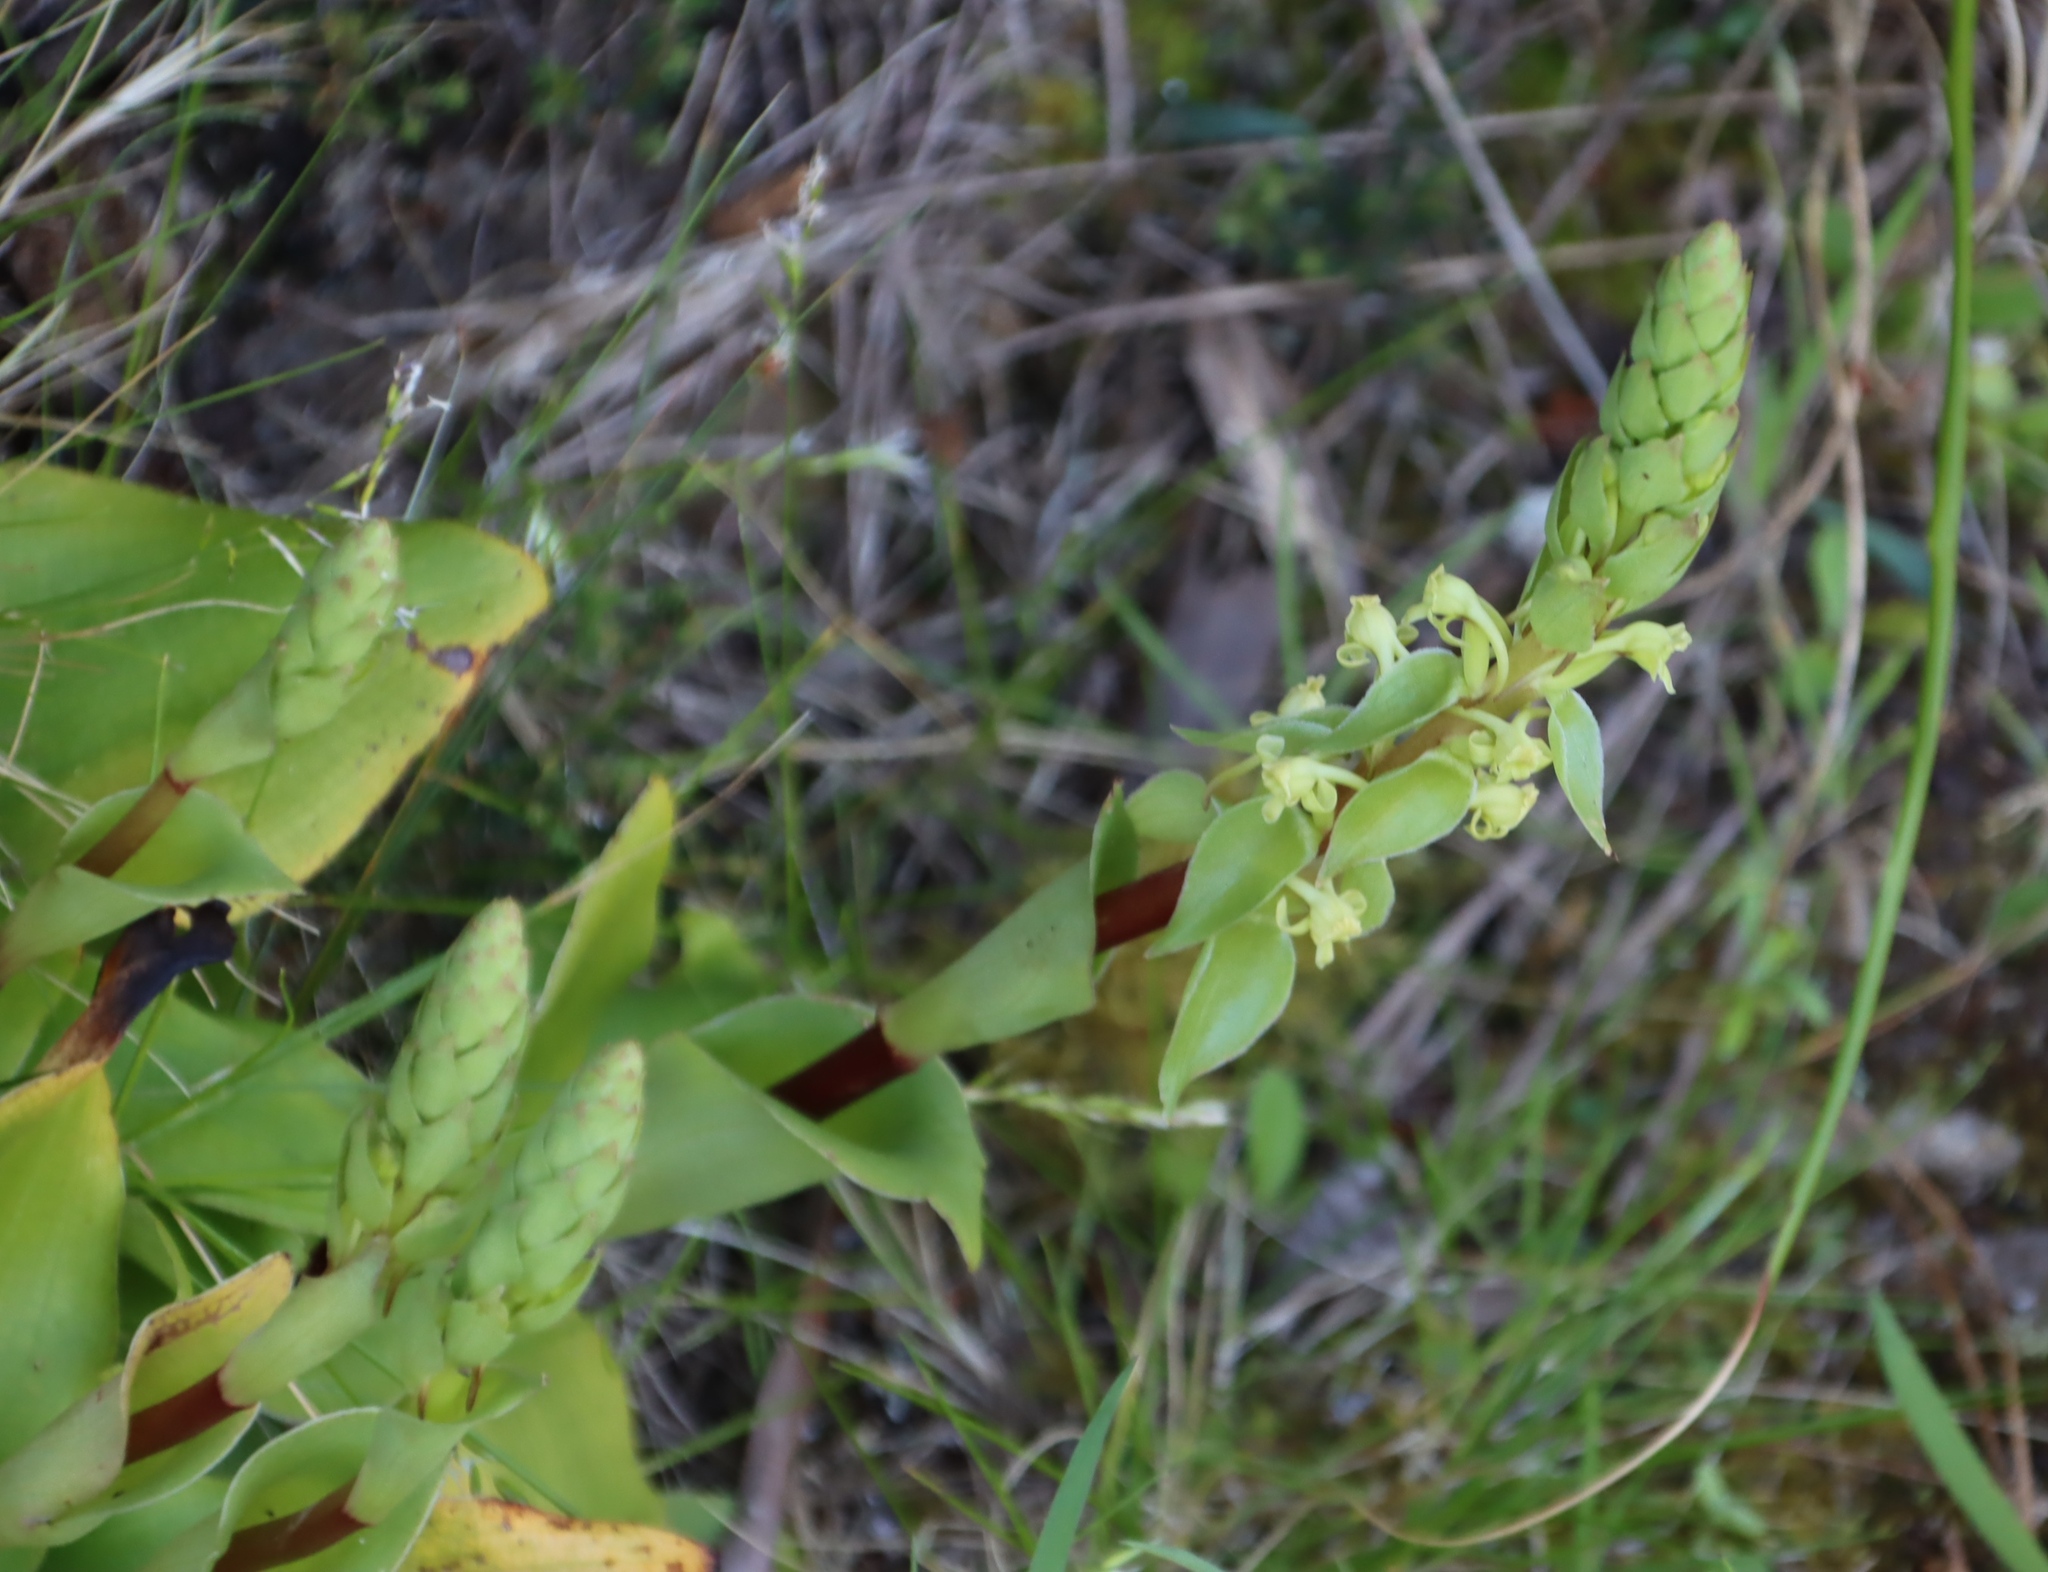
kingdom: Plantae
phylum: Tracheophyta
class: Liliopsida
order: Asparagales
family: Orchidaceae
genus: Satyrium
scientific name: Satyrium humile
